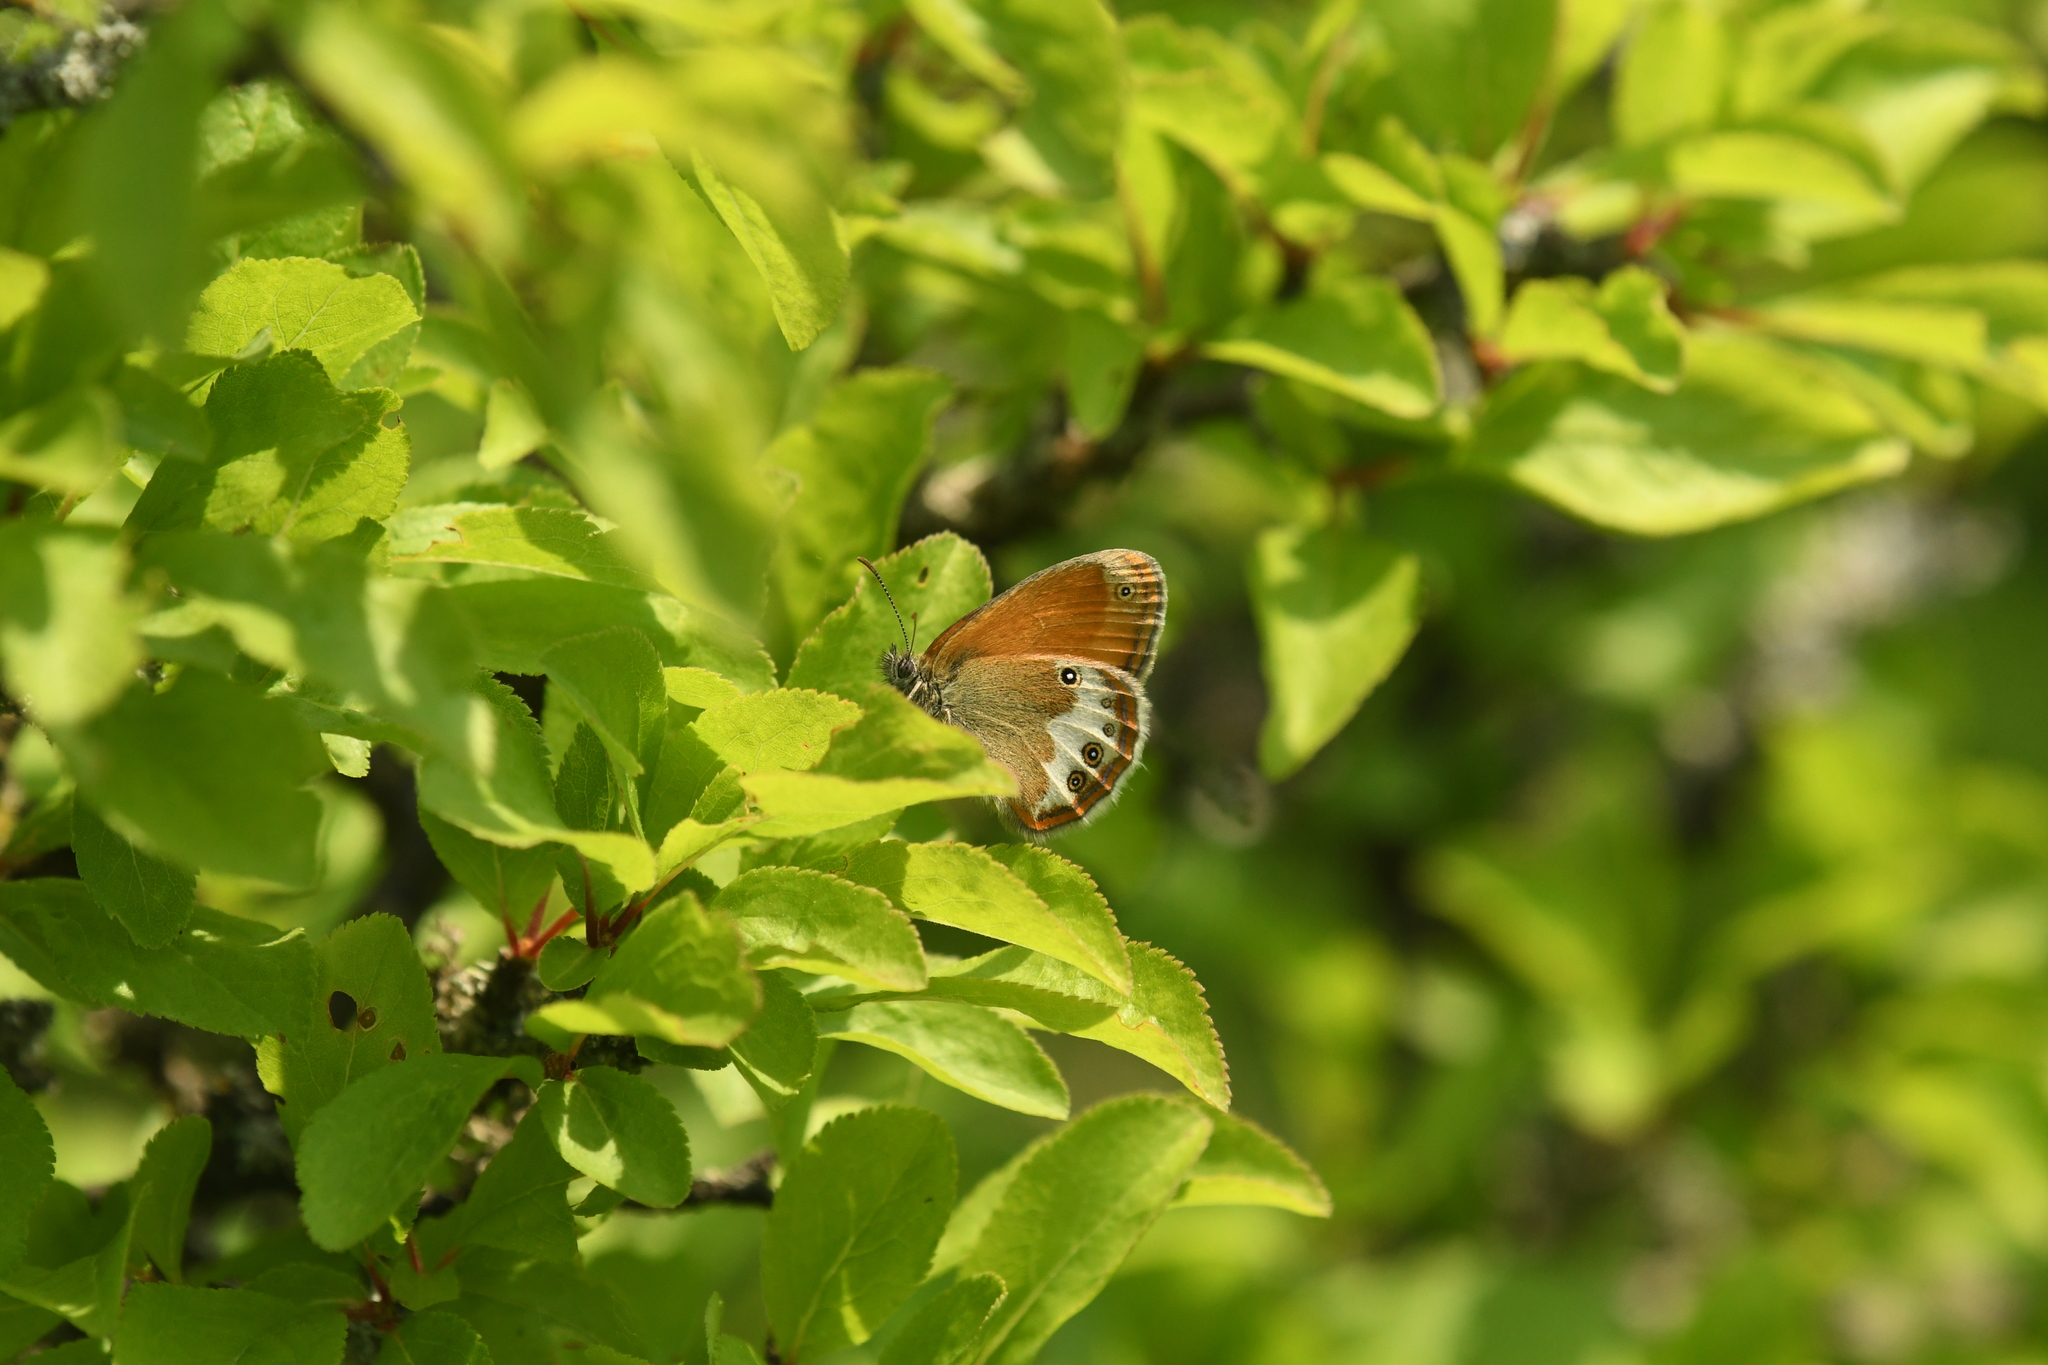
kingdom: Animalia
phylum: Arthropoda
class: Insecta
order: Lepidoptera
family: Nymphalidae
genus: Coenonympha
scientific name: Coenonympha arcania
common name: Pearly heath
